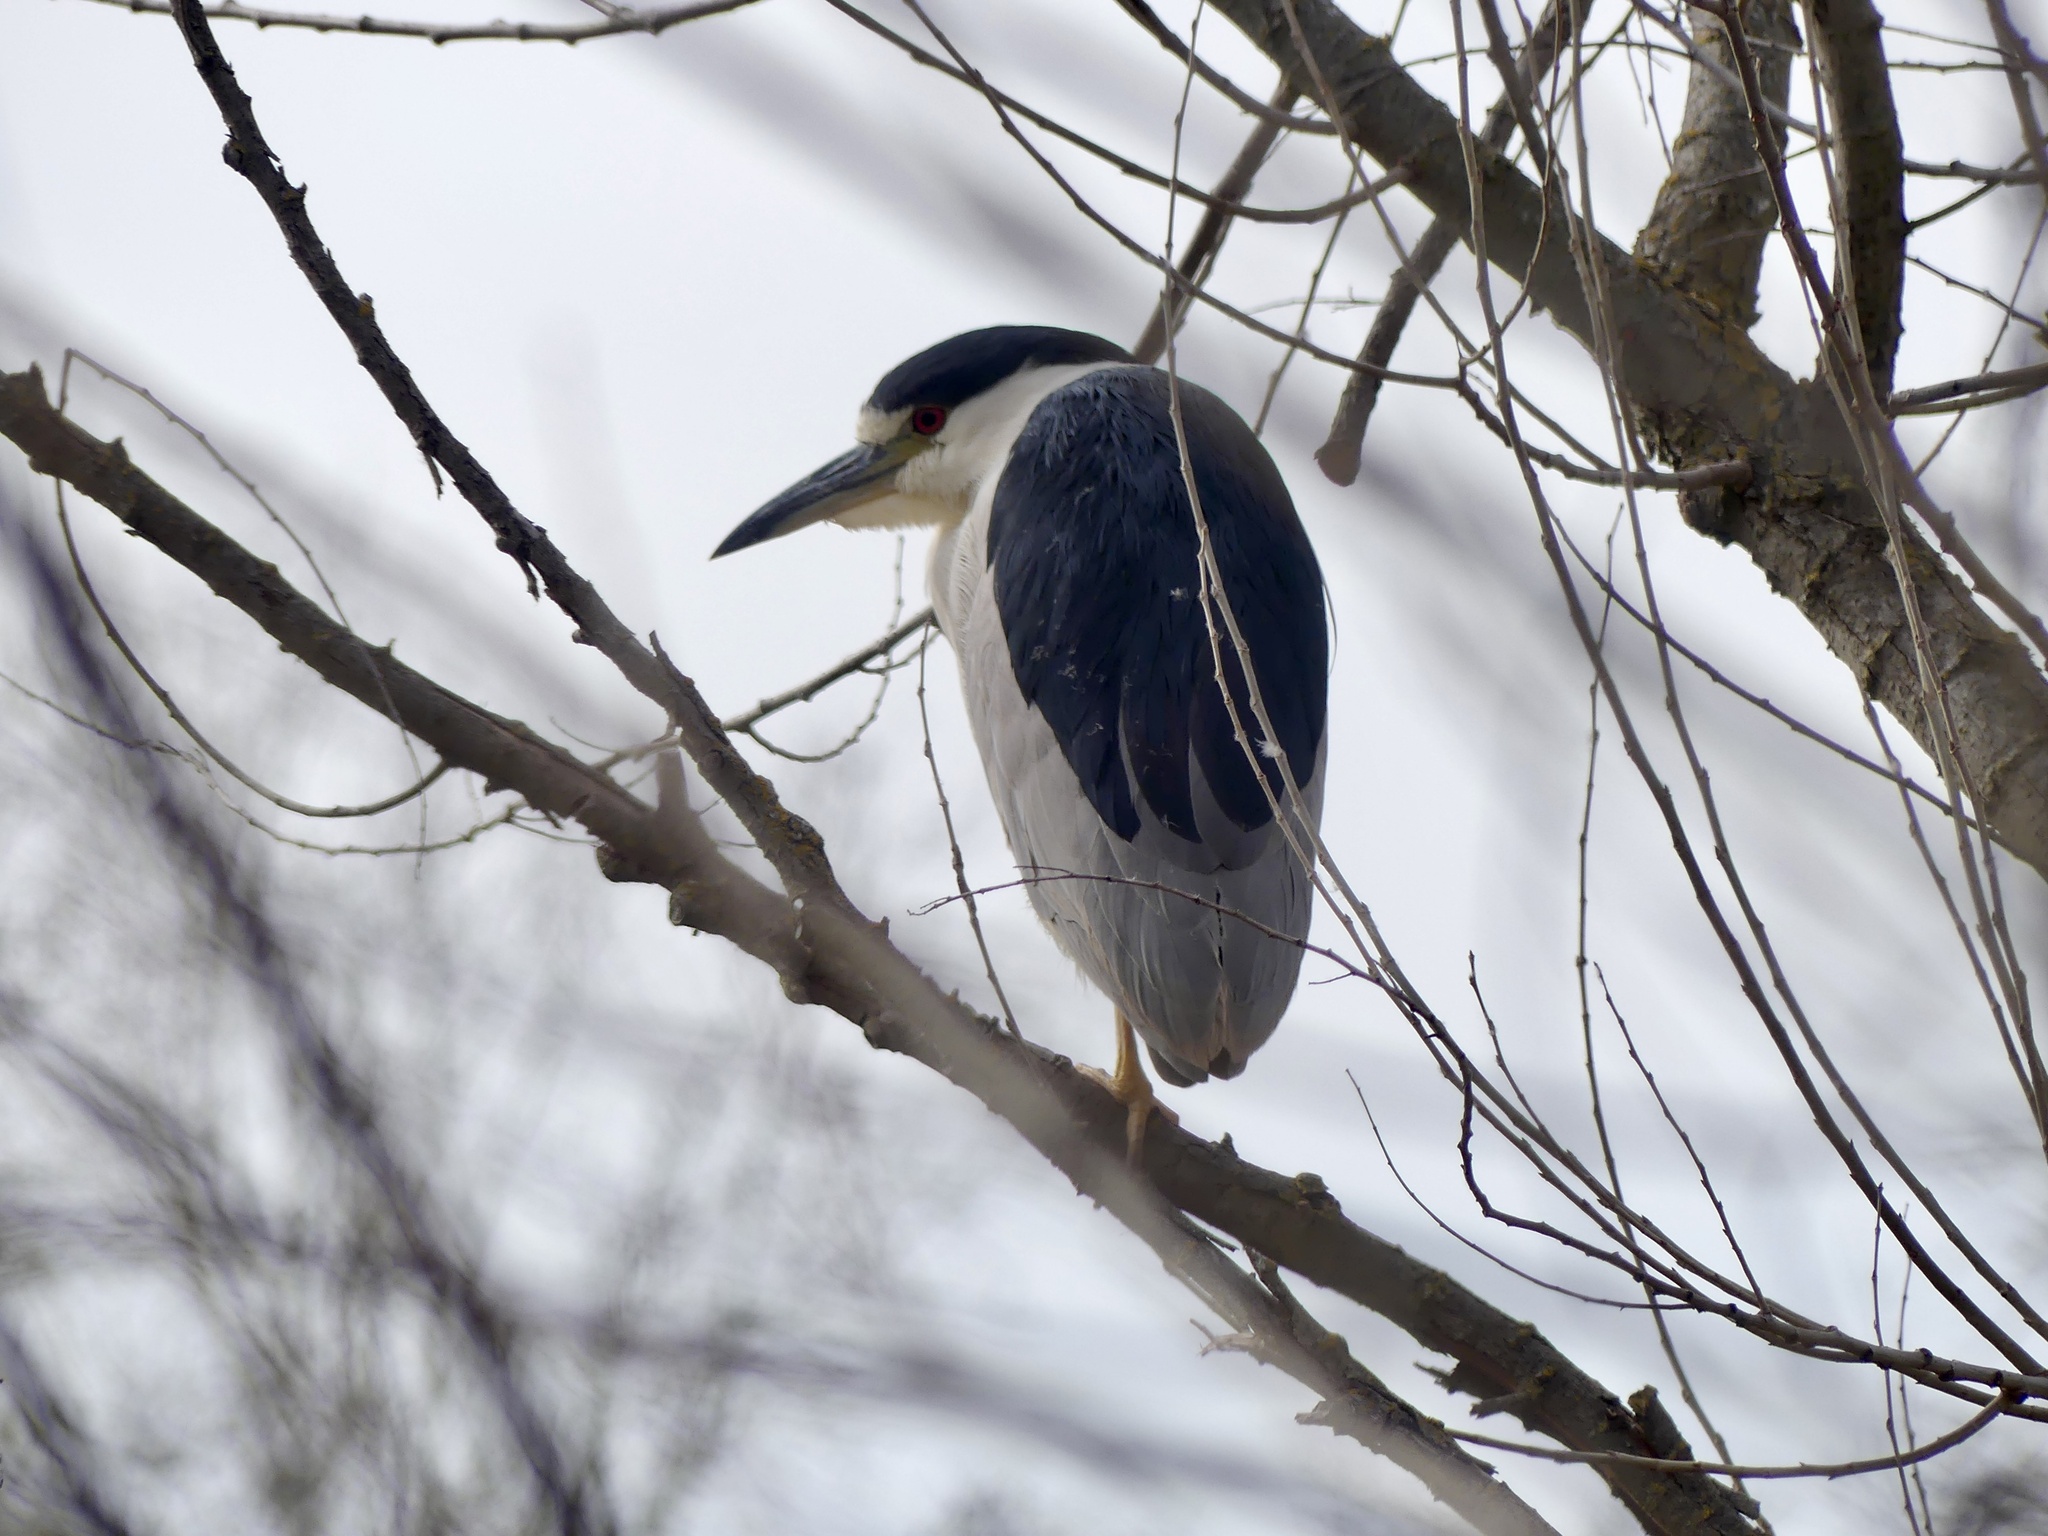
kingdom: Animalia
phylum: Chordata
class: Aves
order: Pelecaniformes
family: Ardeidae
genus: Nycticorax
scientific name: Nycticorax nycticorax
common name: Black-crowned night heron
